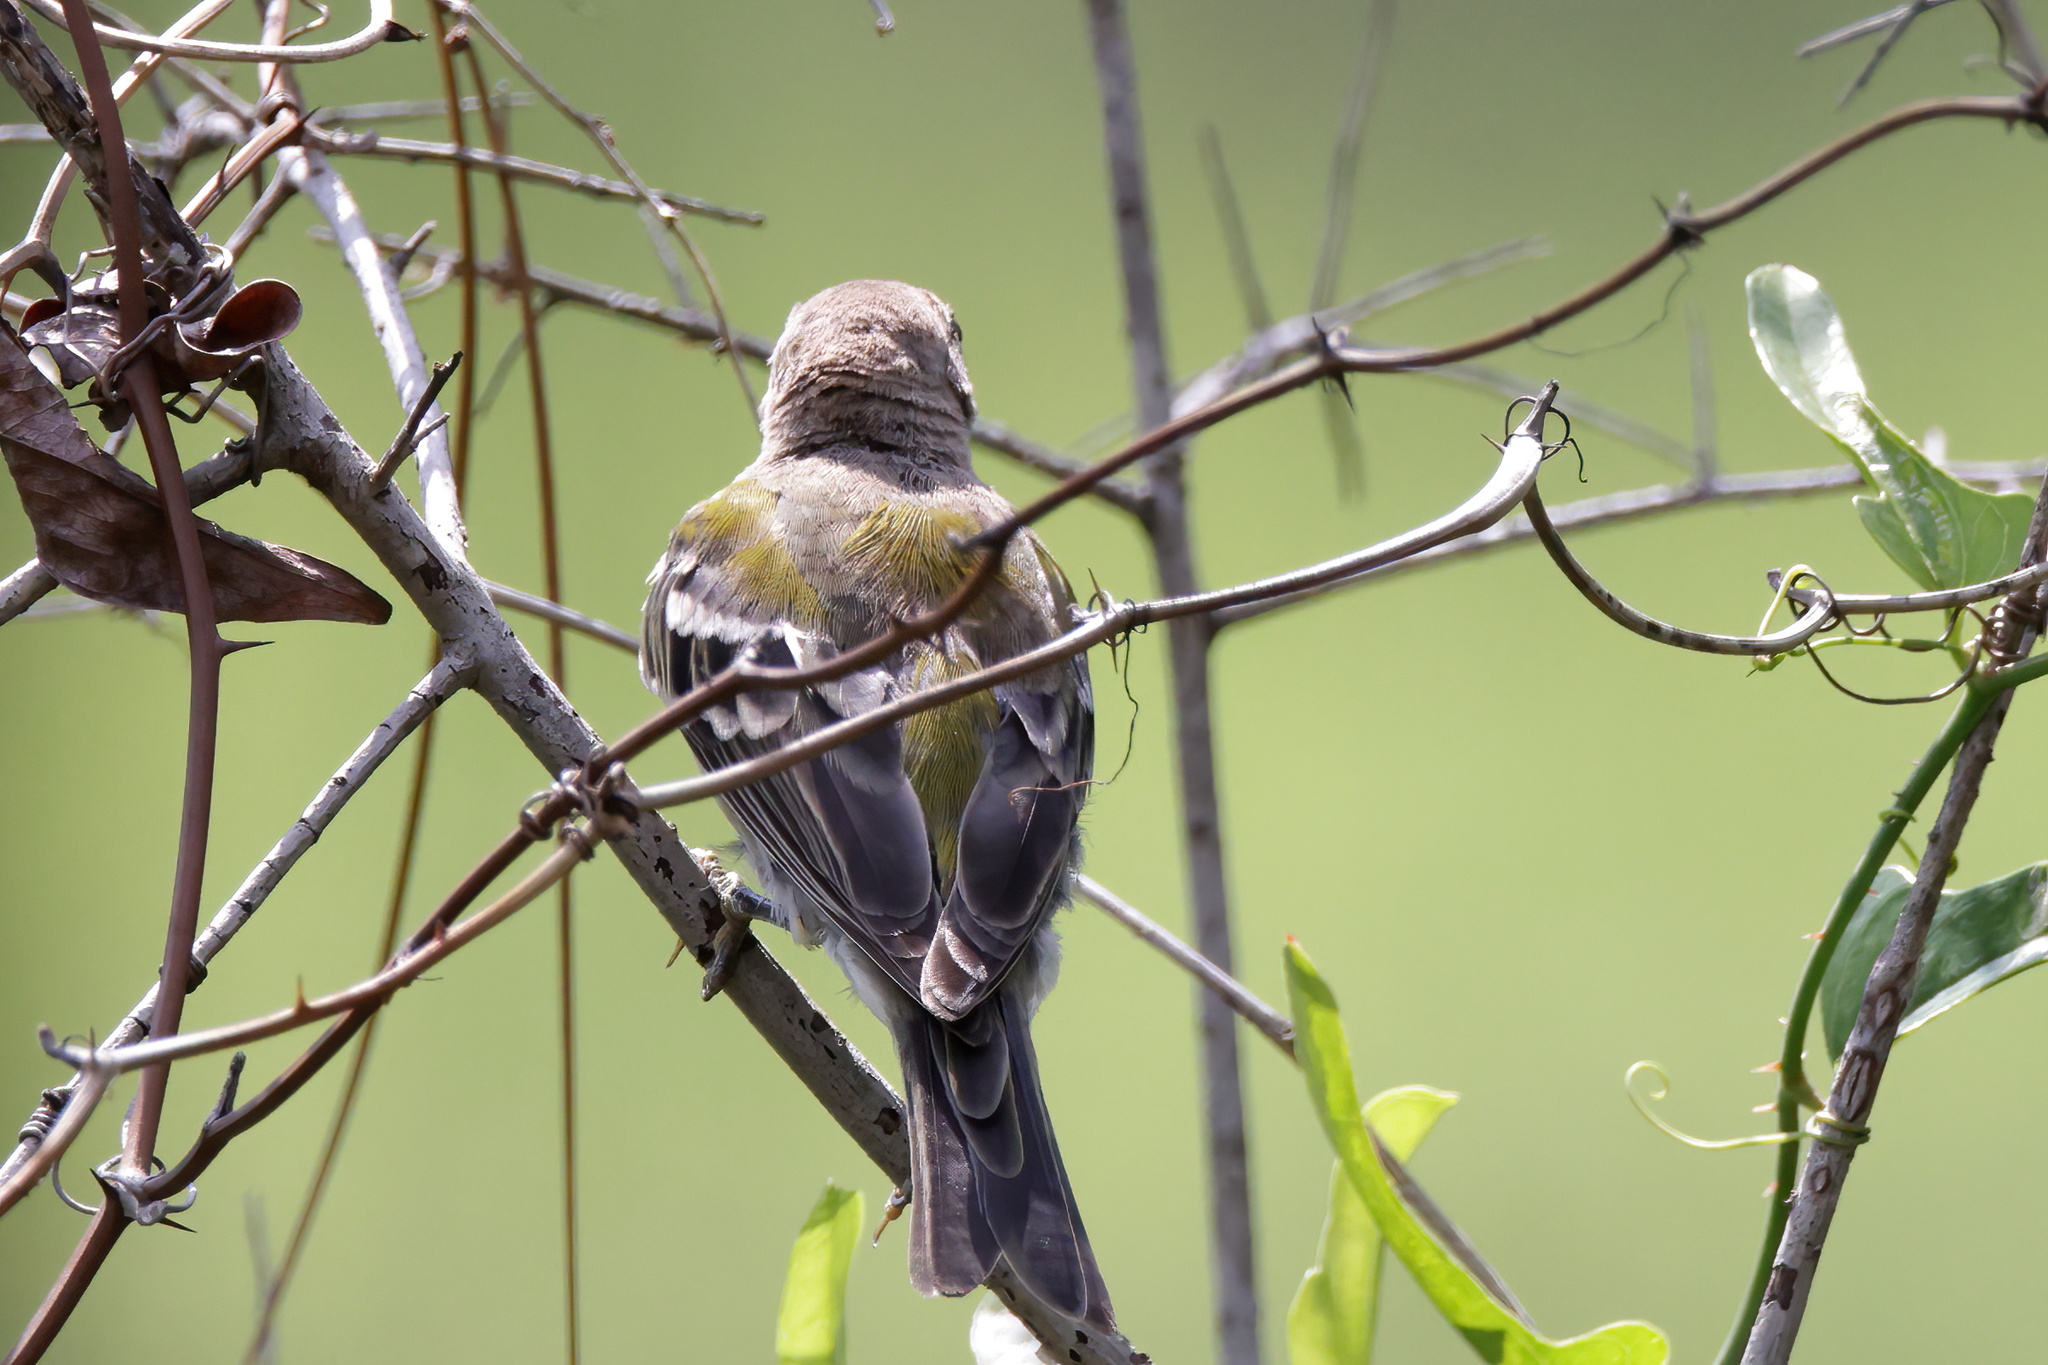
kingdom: Animalia
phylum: Chordata
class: Aves
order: Passeriformes
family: Parulidae
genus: Setophaga
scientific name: Setophaga pinus
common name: Pine warbler
